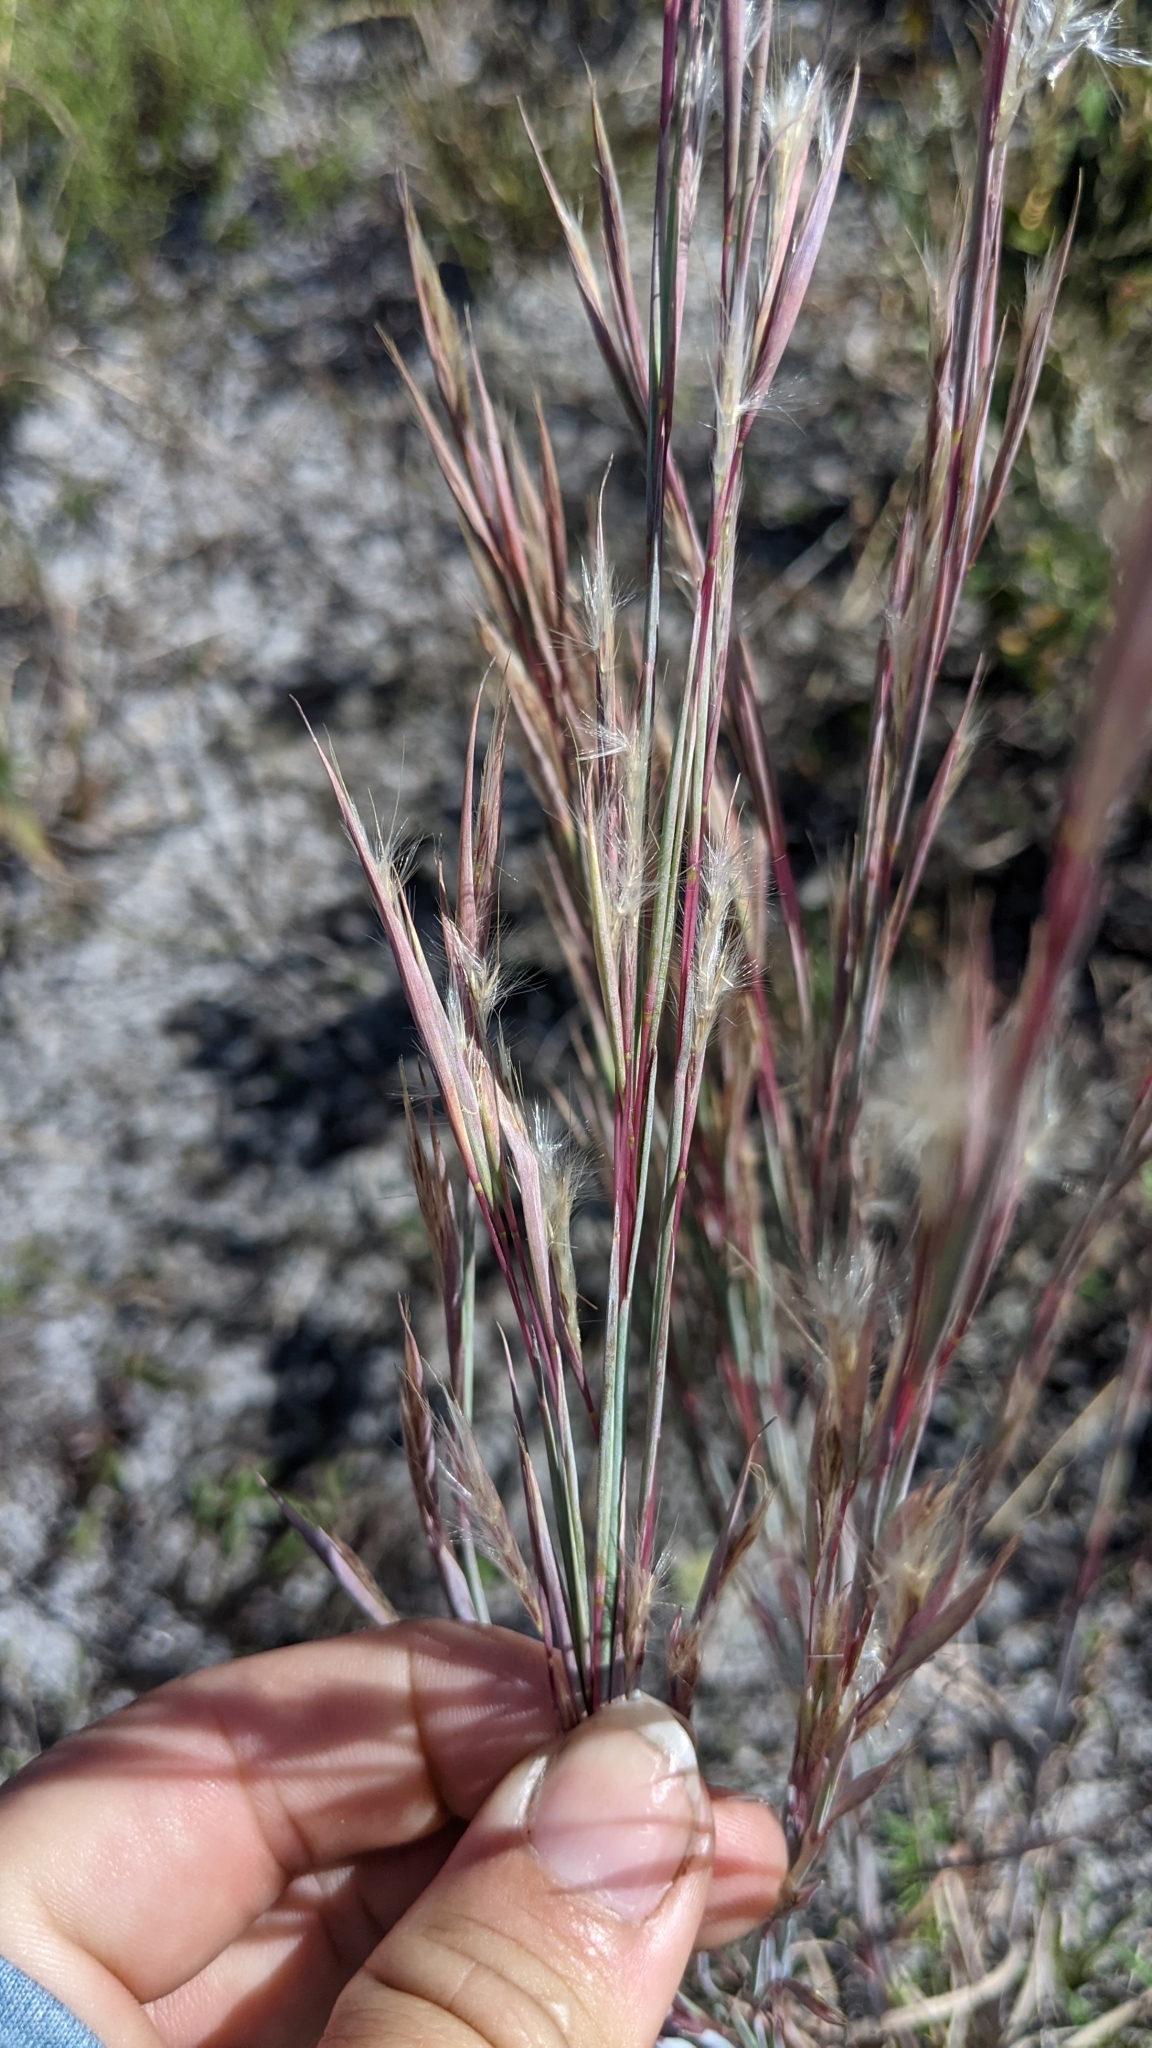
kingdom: Plantae
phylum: Tracheophyta
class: Liliopsida
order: Poales
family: Poaceae
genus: Andropogon
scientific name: Andropogon capillipes
